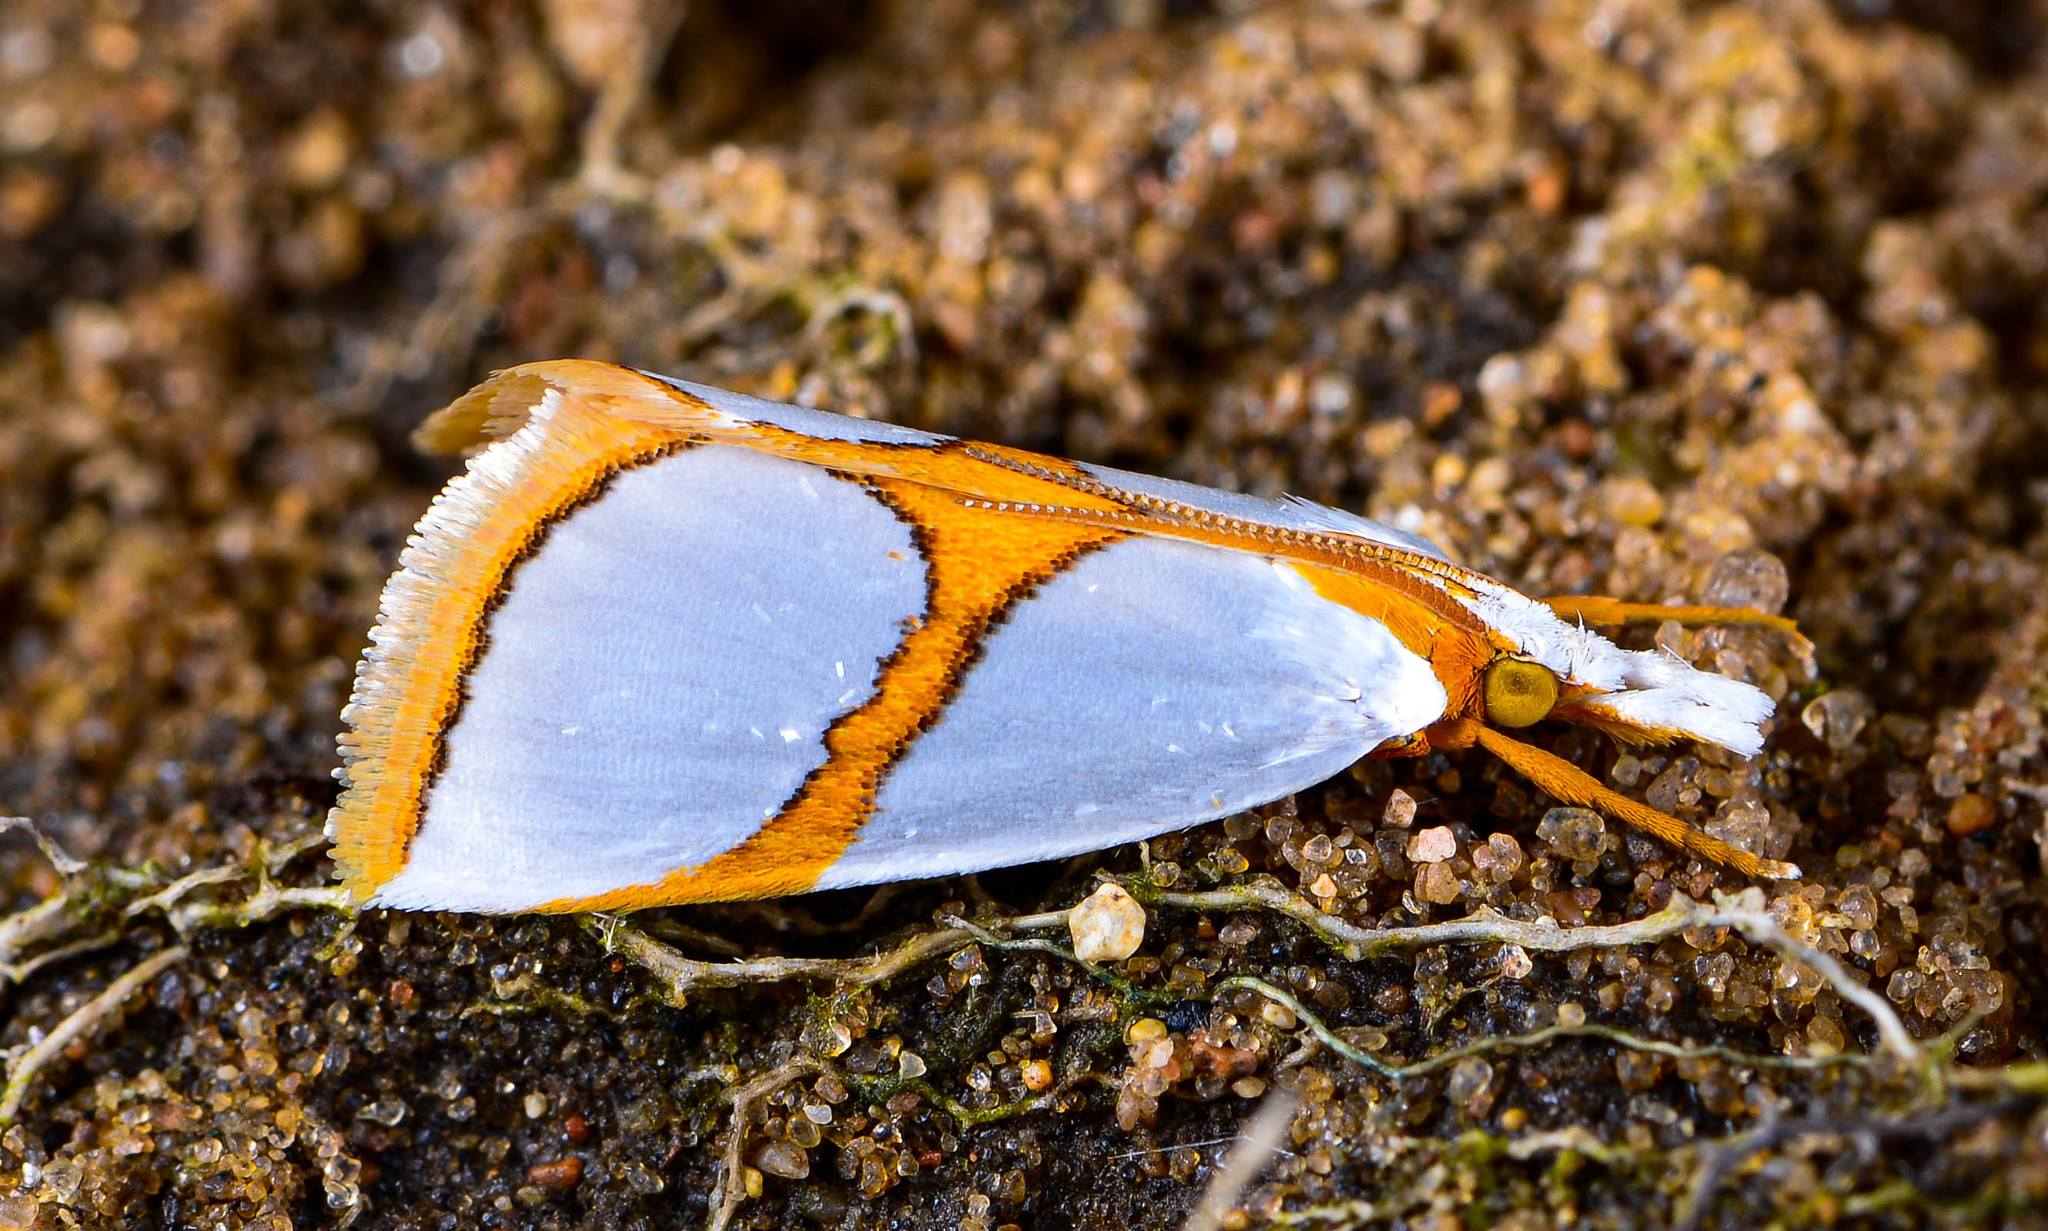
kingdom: Animalia
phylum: Arthropoda
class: Insecta
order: Lepidoptera
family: Crambidae
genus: Argyria
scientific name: Argyria auratella
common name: Curve-lined argyria moth
